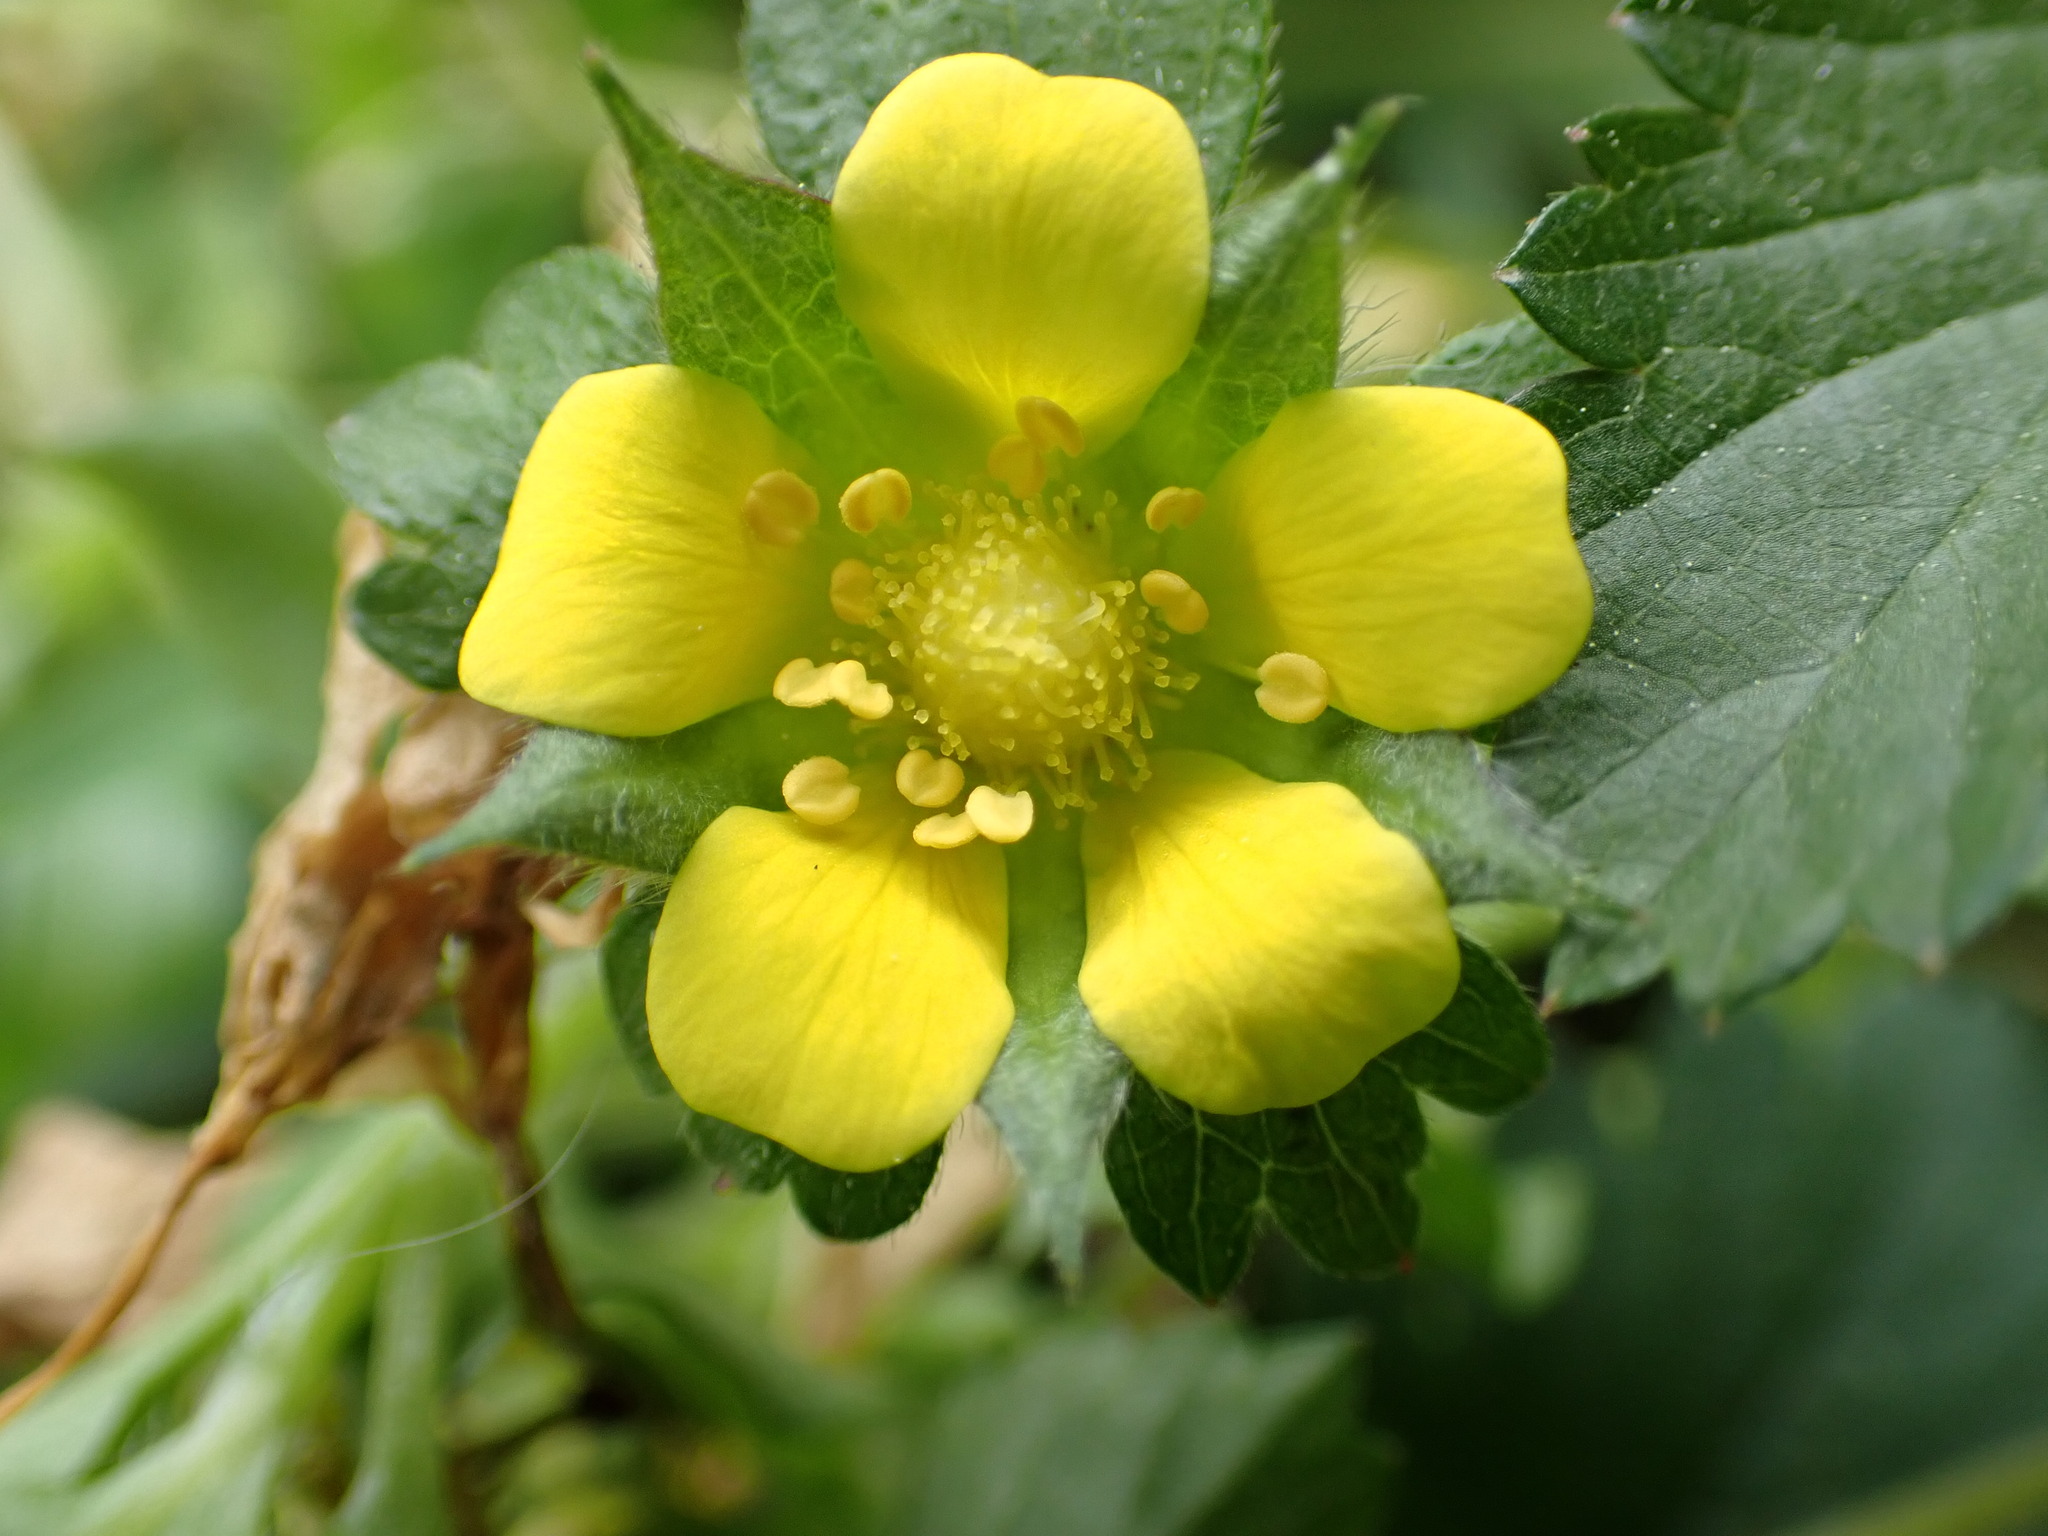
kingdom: Plantae
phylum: Tracheophyta
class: Magnoliopsida
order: Rosales
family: Rosaceae
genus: Potentilla
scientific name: Potentilla indica
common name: Yellow-flowered strawberry
